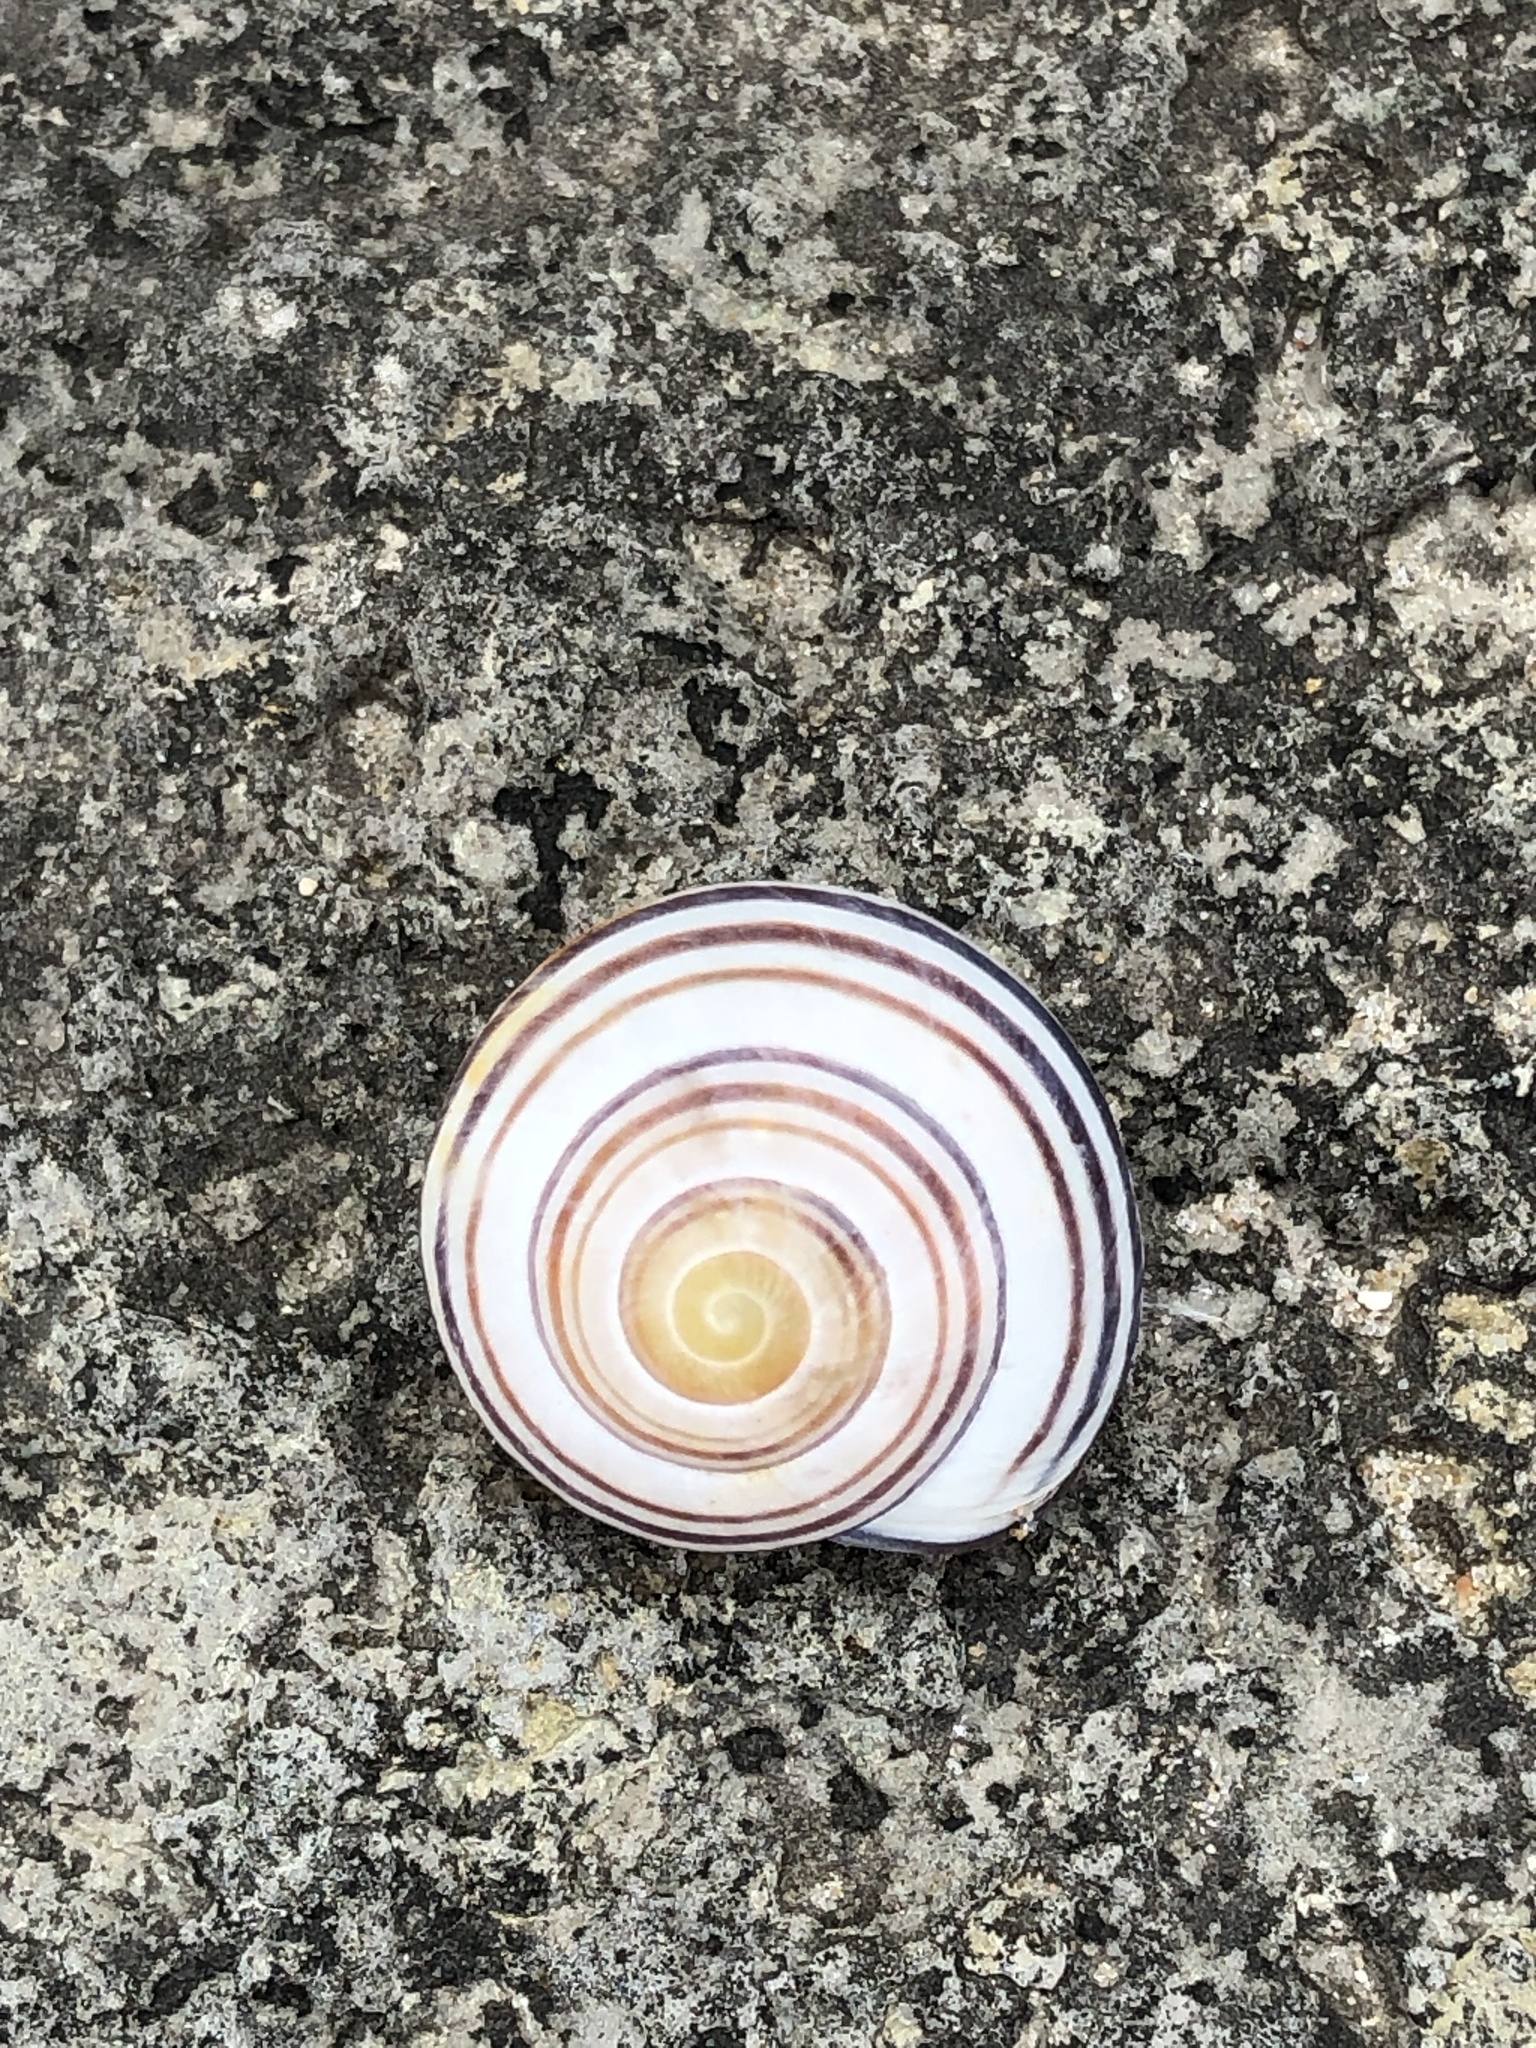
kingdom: Animalia
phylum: Mollusca
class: Gastropoda
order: Stylommatophora
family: Helicidae
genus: Cepaea
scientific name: Cepaea nemoralis
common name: Grovesnail
